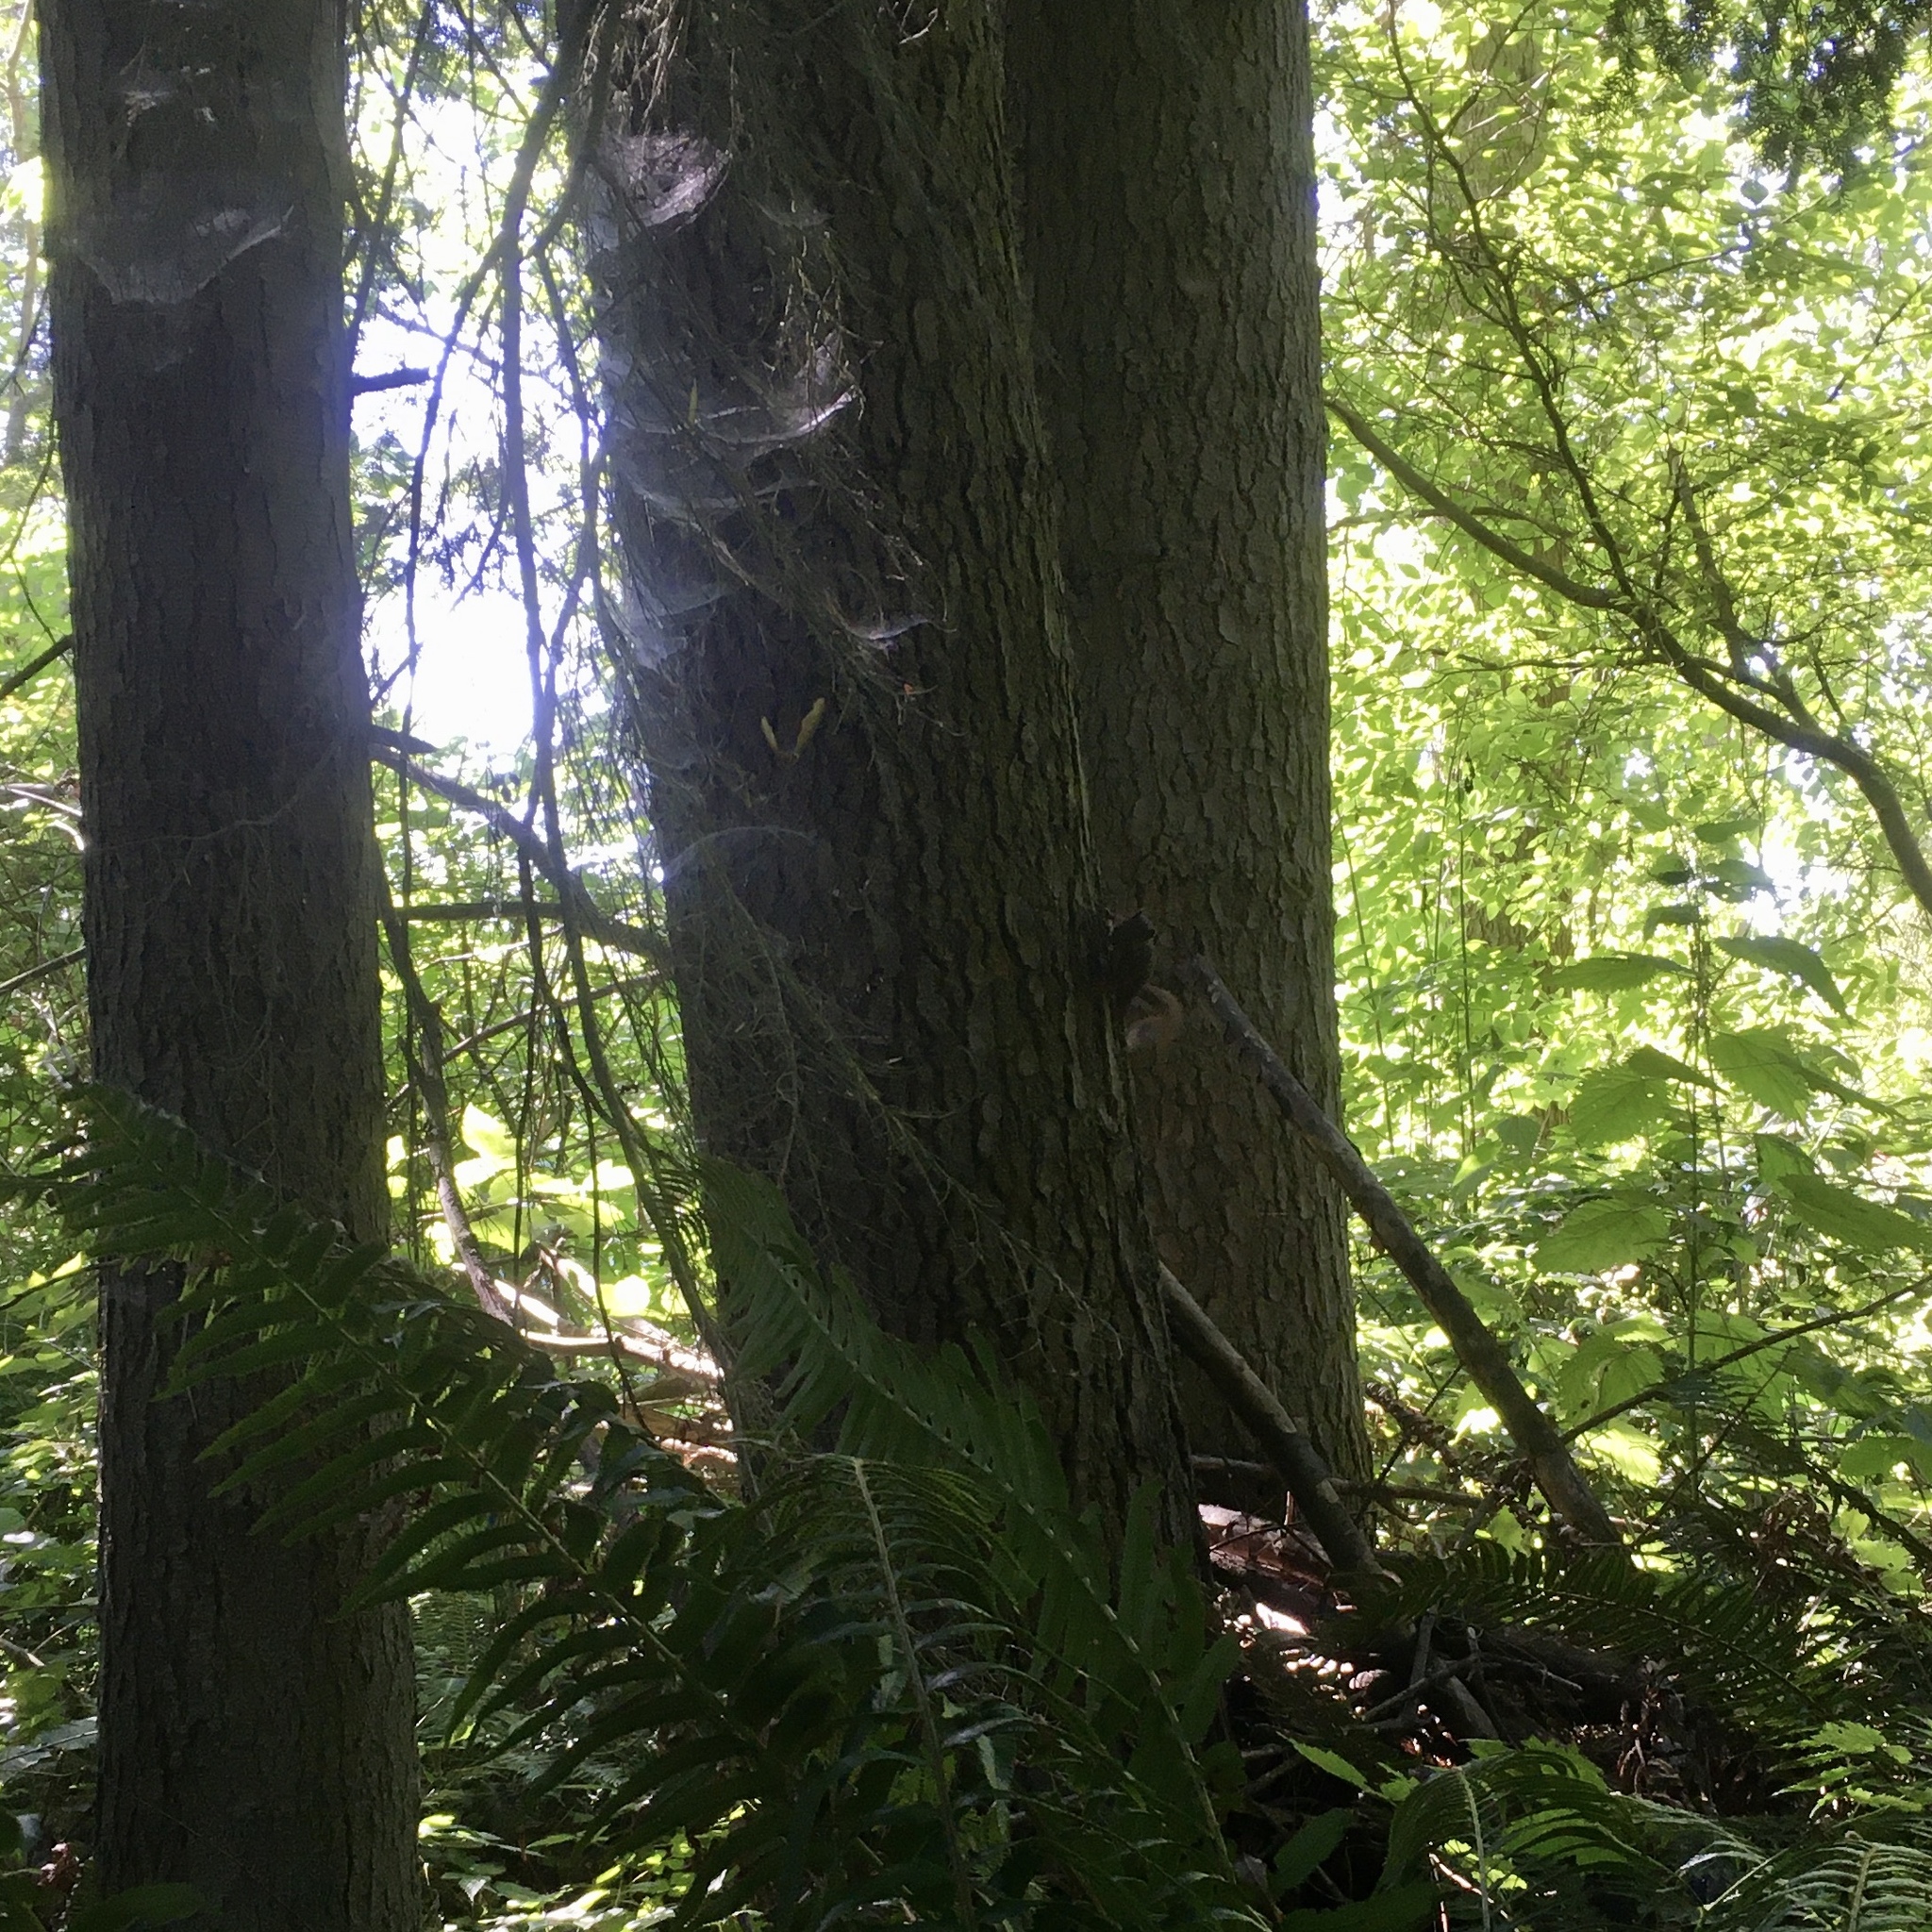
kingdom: Animalia
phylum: Chordata
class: Mammalia
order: Rodentia
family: Sciuridae
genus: Tamiasciurus
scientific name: Tamiasciurus douglasii
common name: Douglas's squirrel
